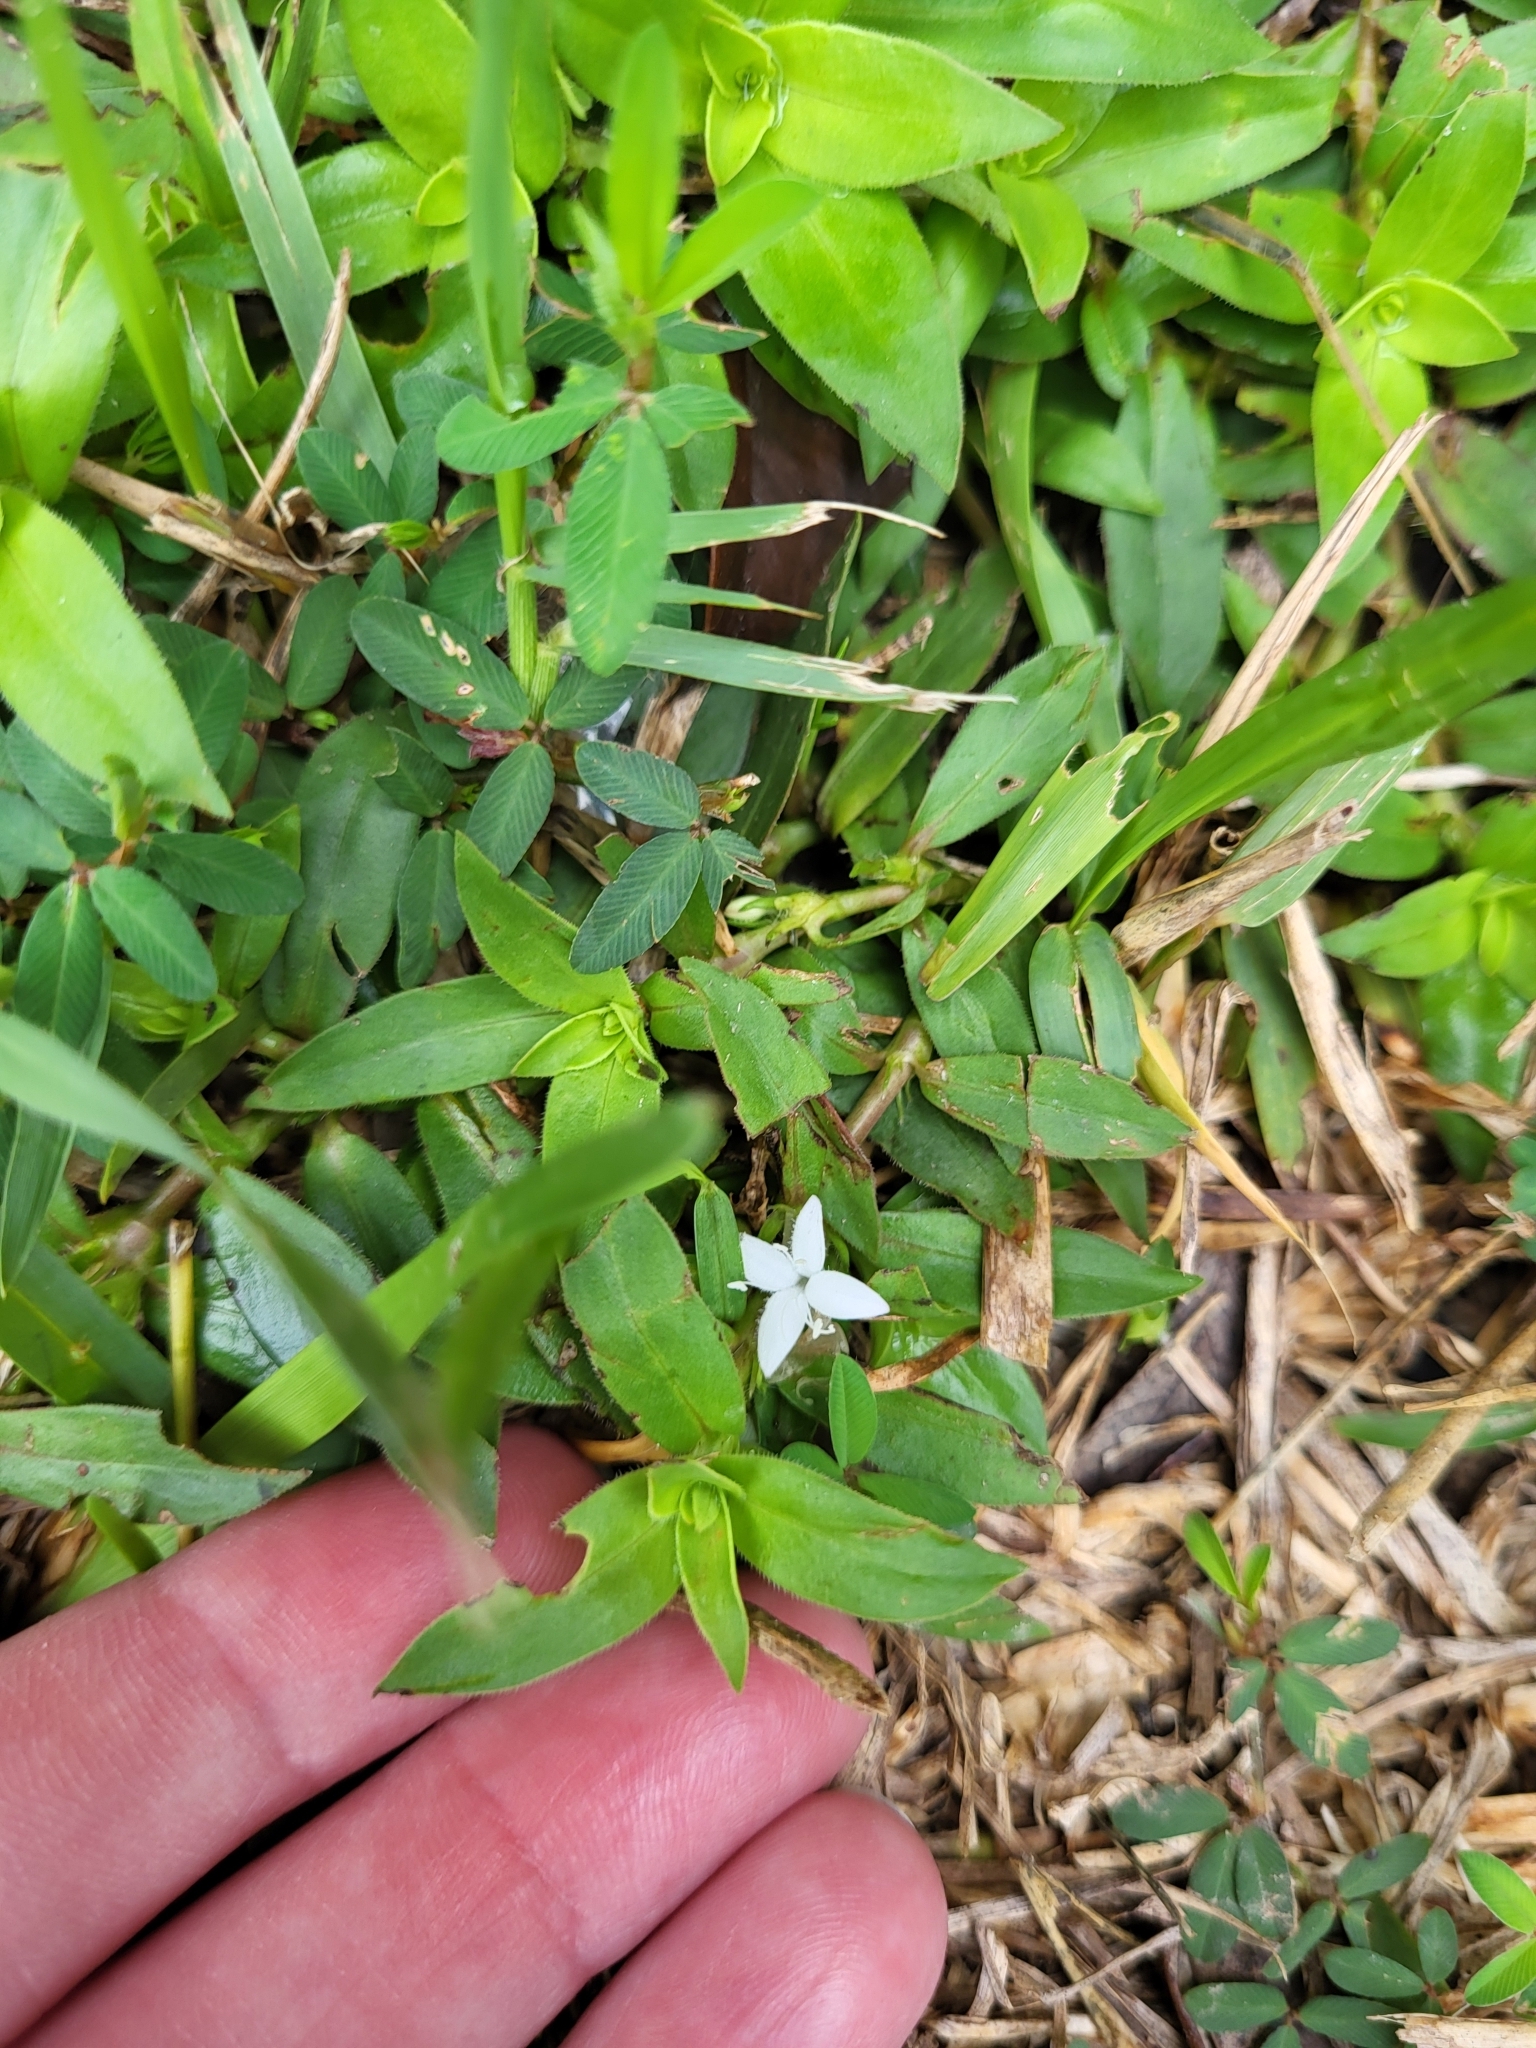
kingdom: Plantae
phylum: Tracheophyta
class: Magnoliopsida
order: Gentianales
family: Rubiaceae
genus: Diodia
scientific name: Diodia virginiana
